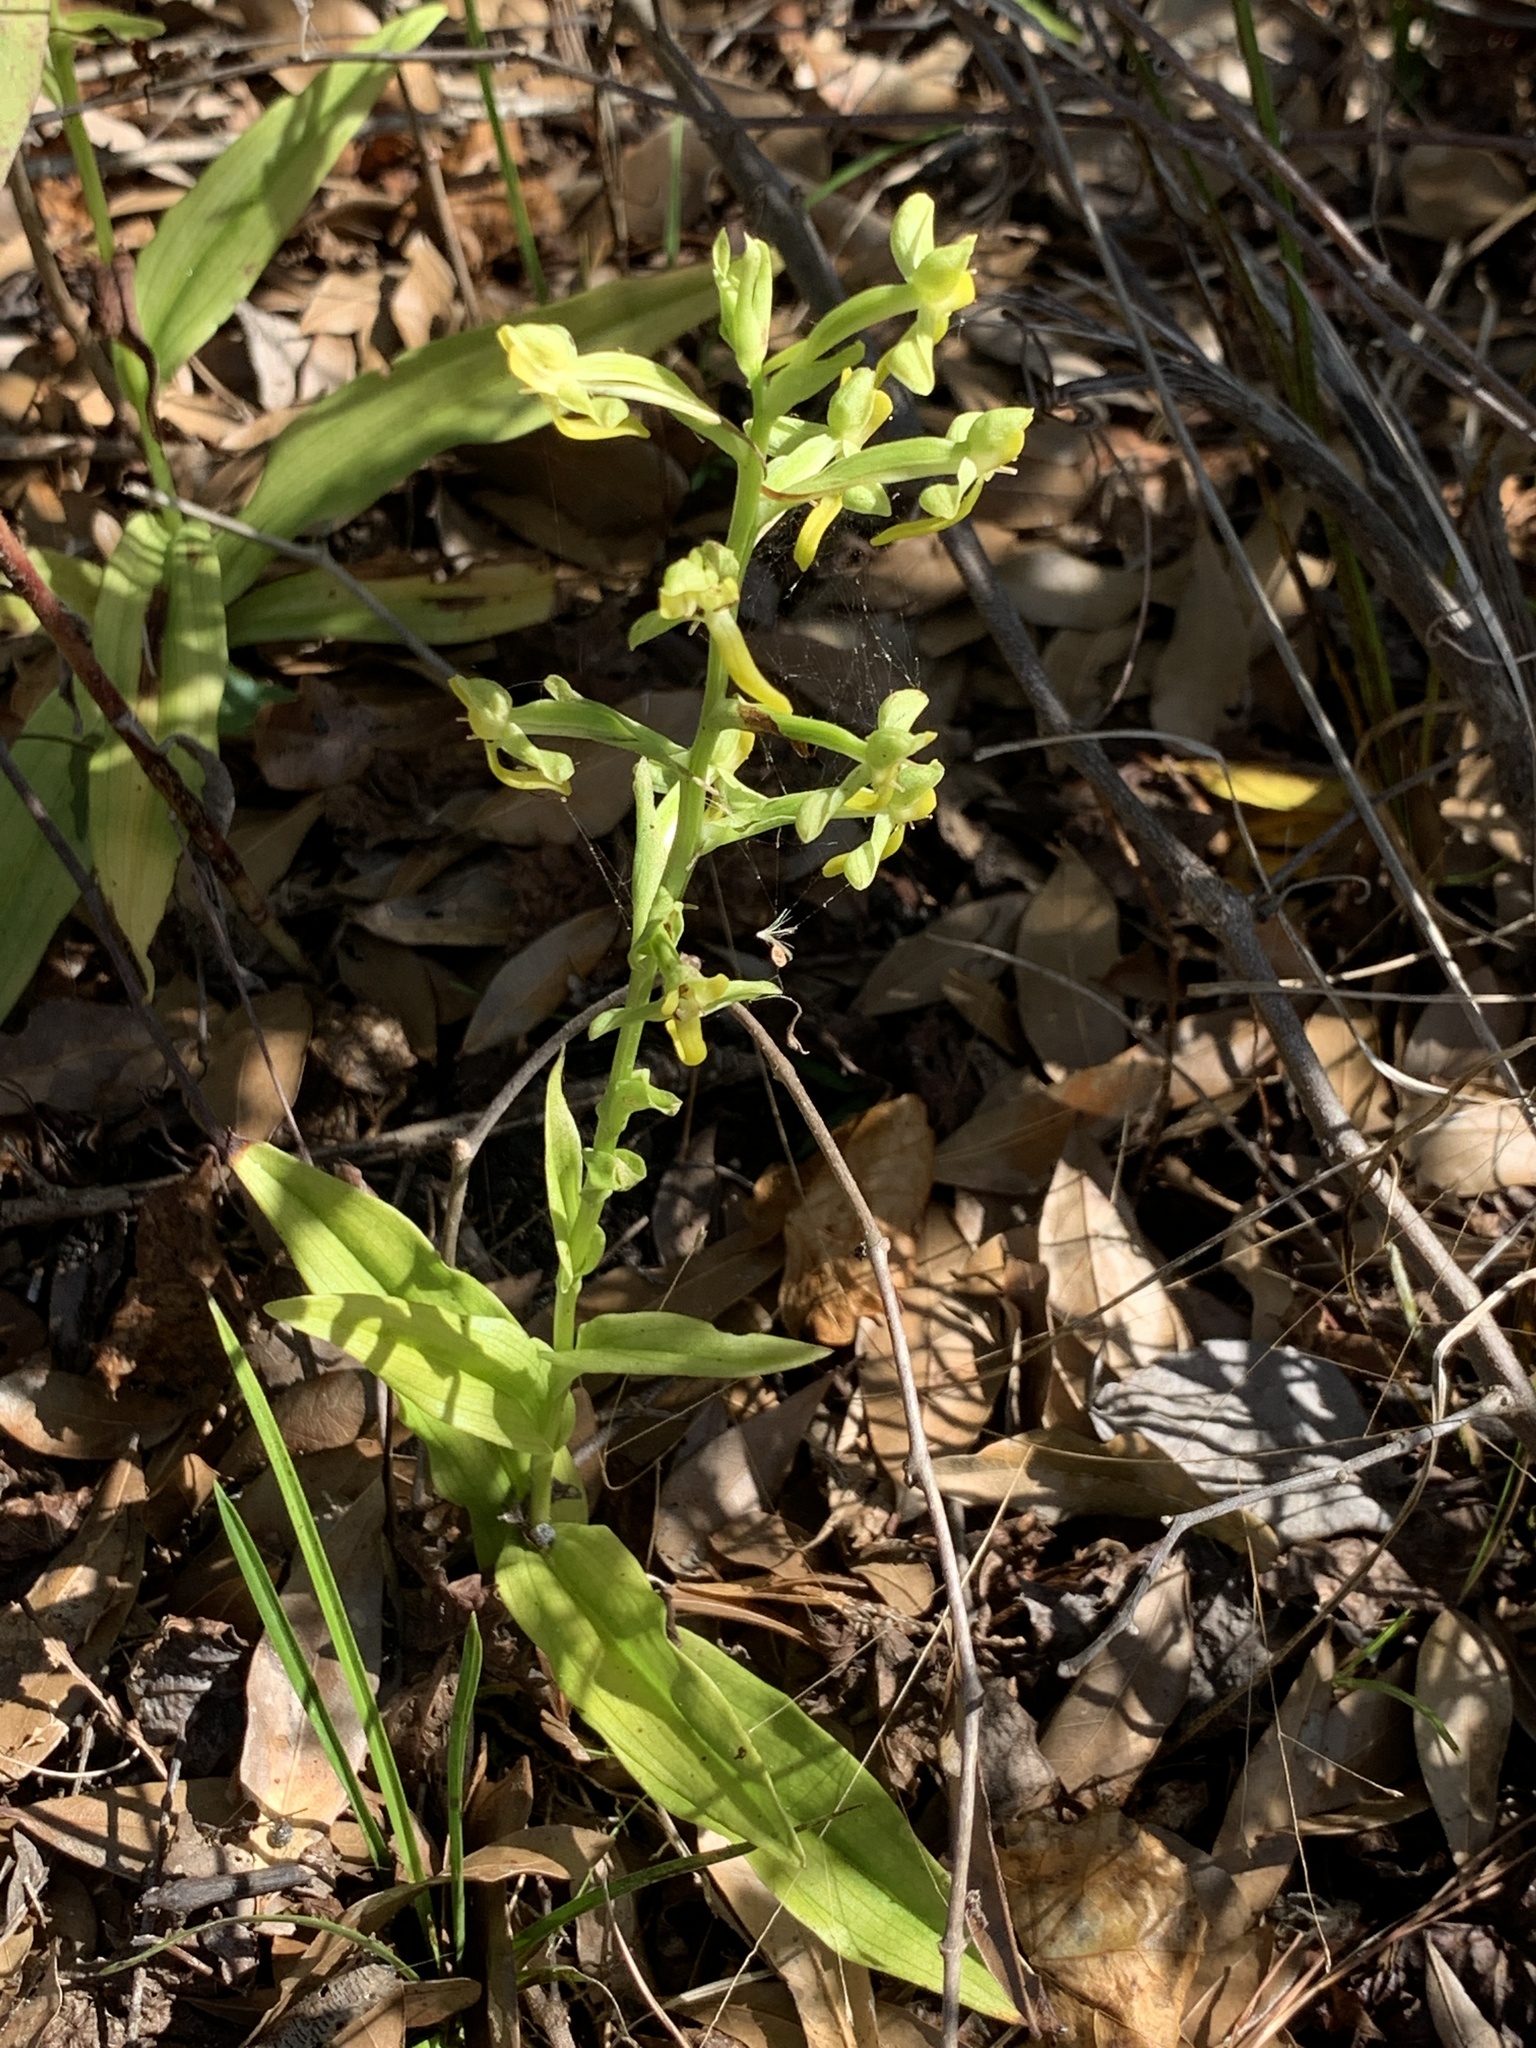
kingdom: Plantae
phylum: Tracheophyta
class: Liliopsida
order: Asparagales
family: Orchidaceae
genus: Habenaria
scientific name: Habenaria floribunda
